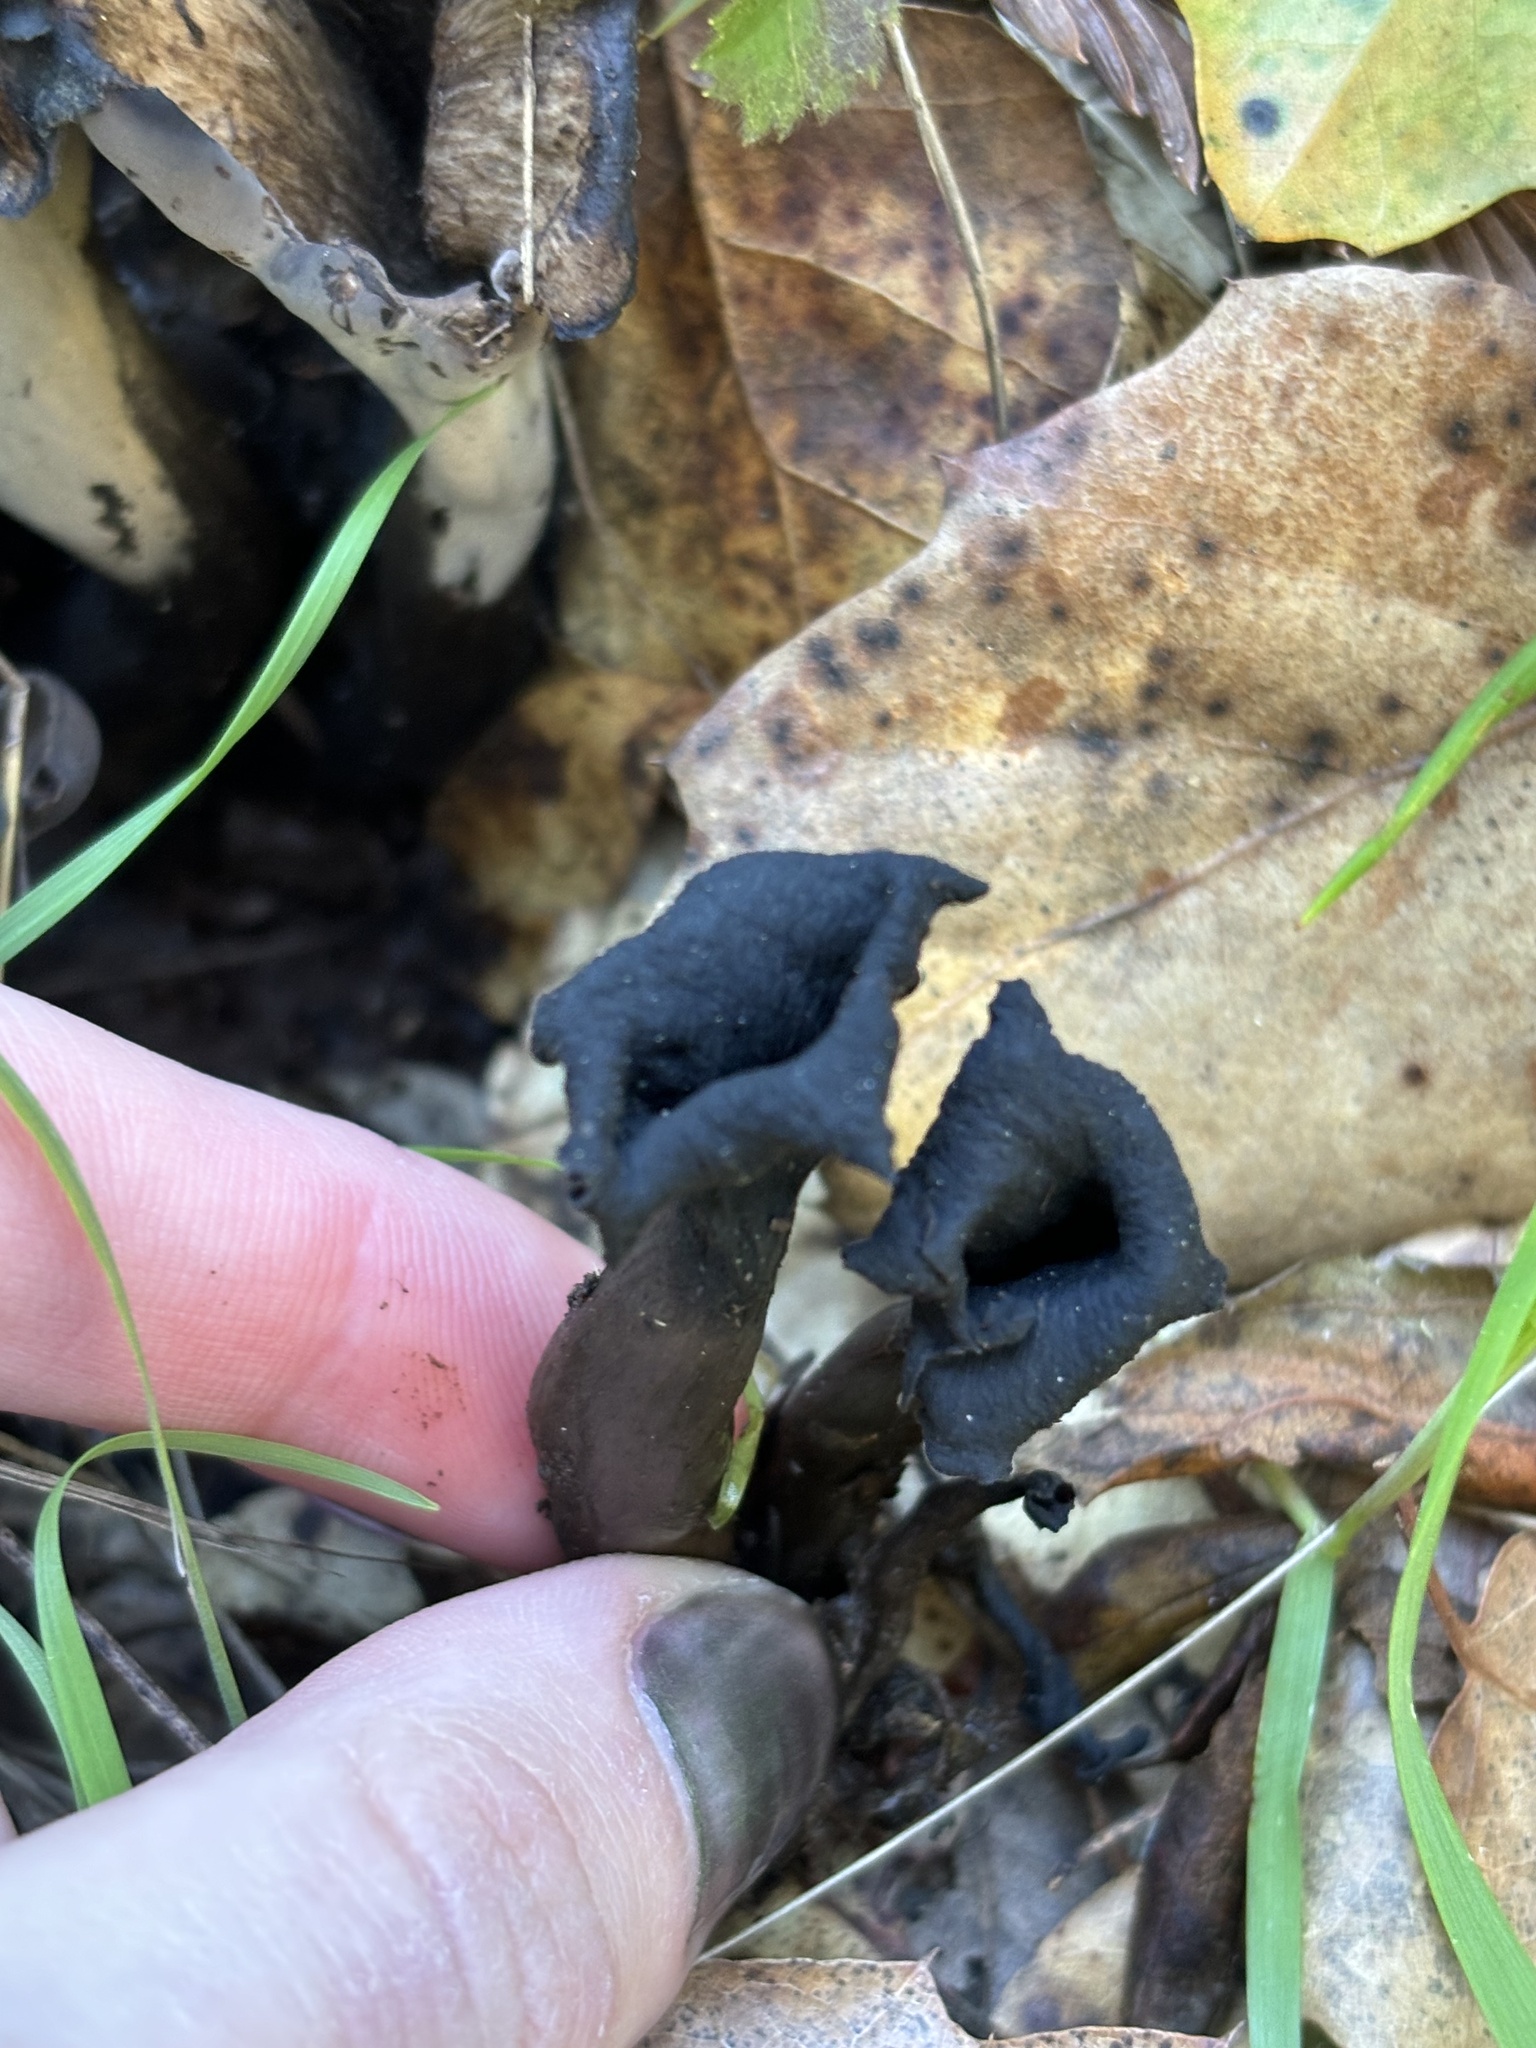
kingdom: Fungi
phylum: Basidiomycota
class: Agaricomycetes
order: Cantharellales
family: Hydnaceae
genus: Craterellus
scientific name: Craterellus calicornucopioides
